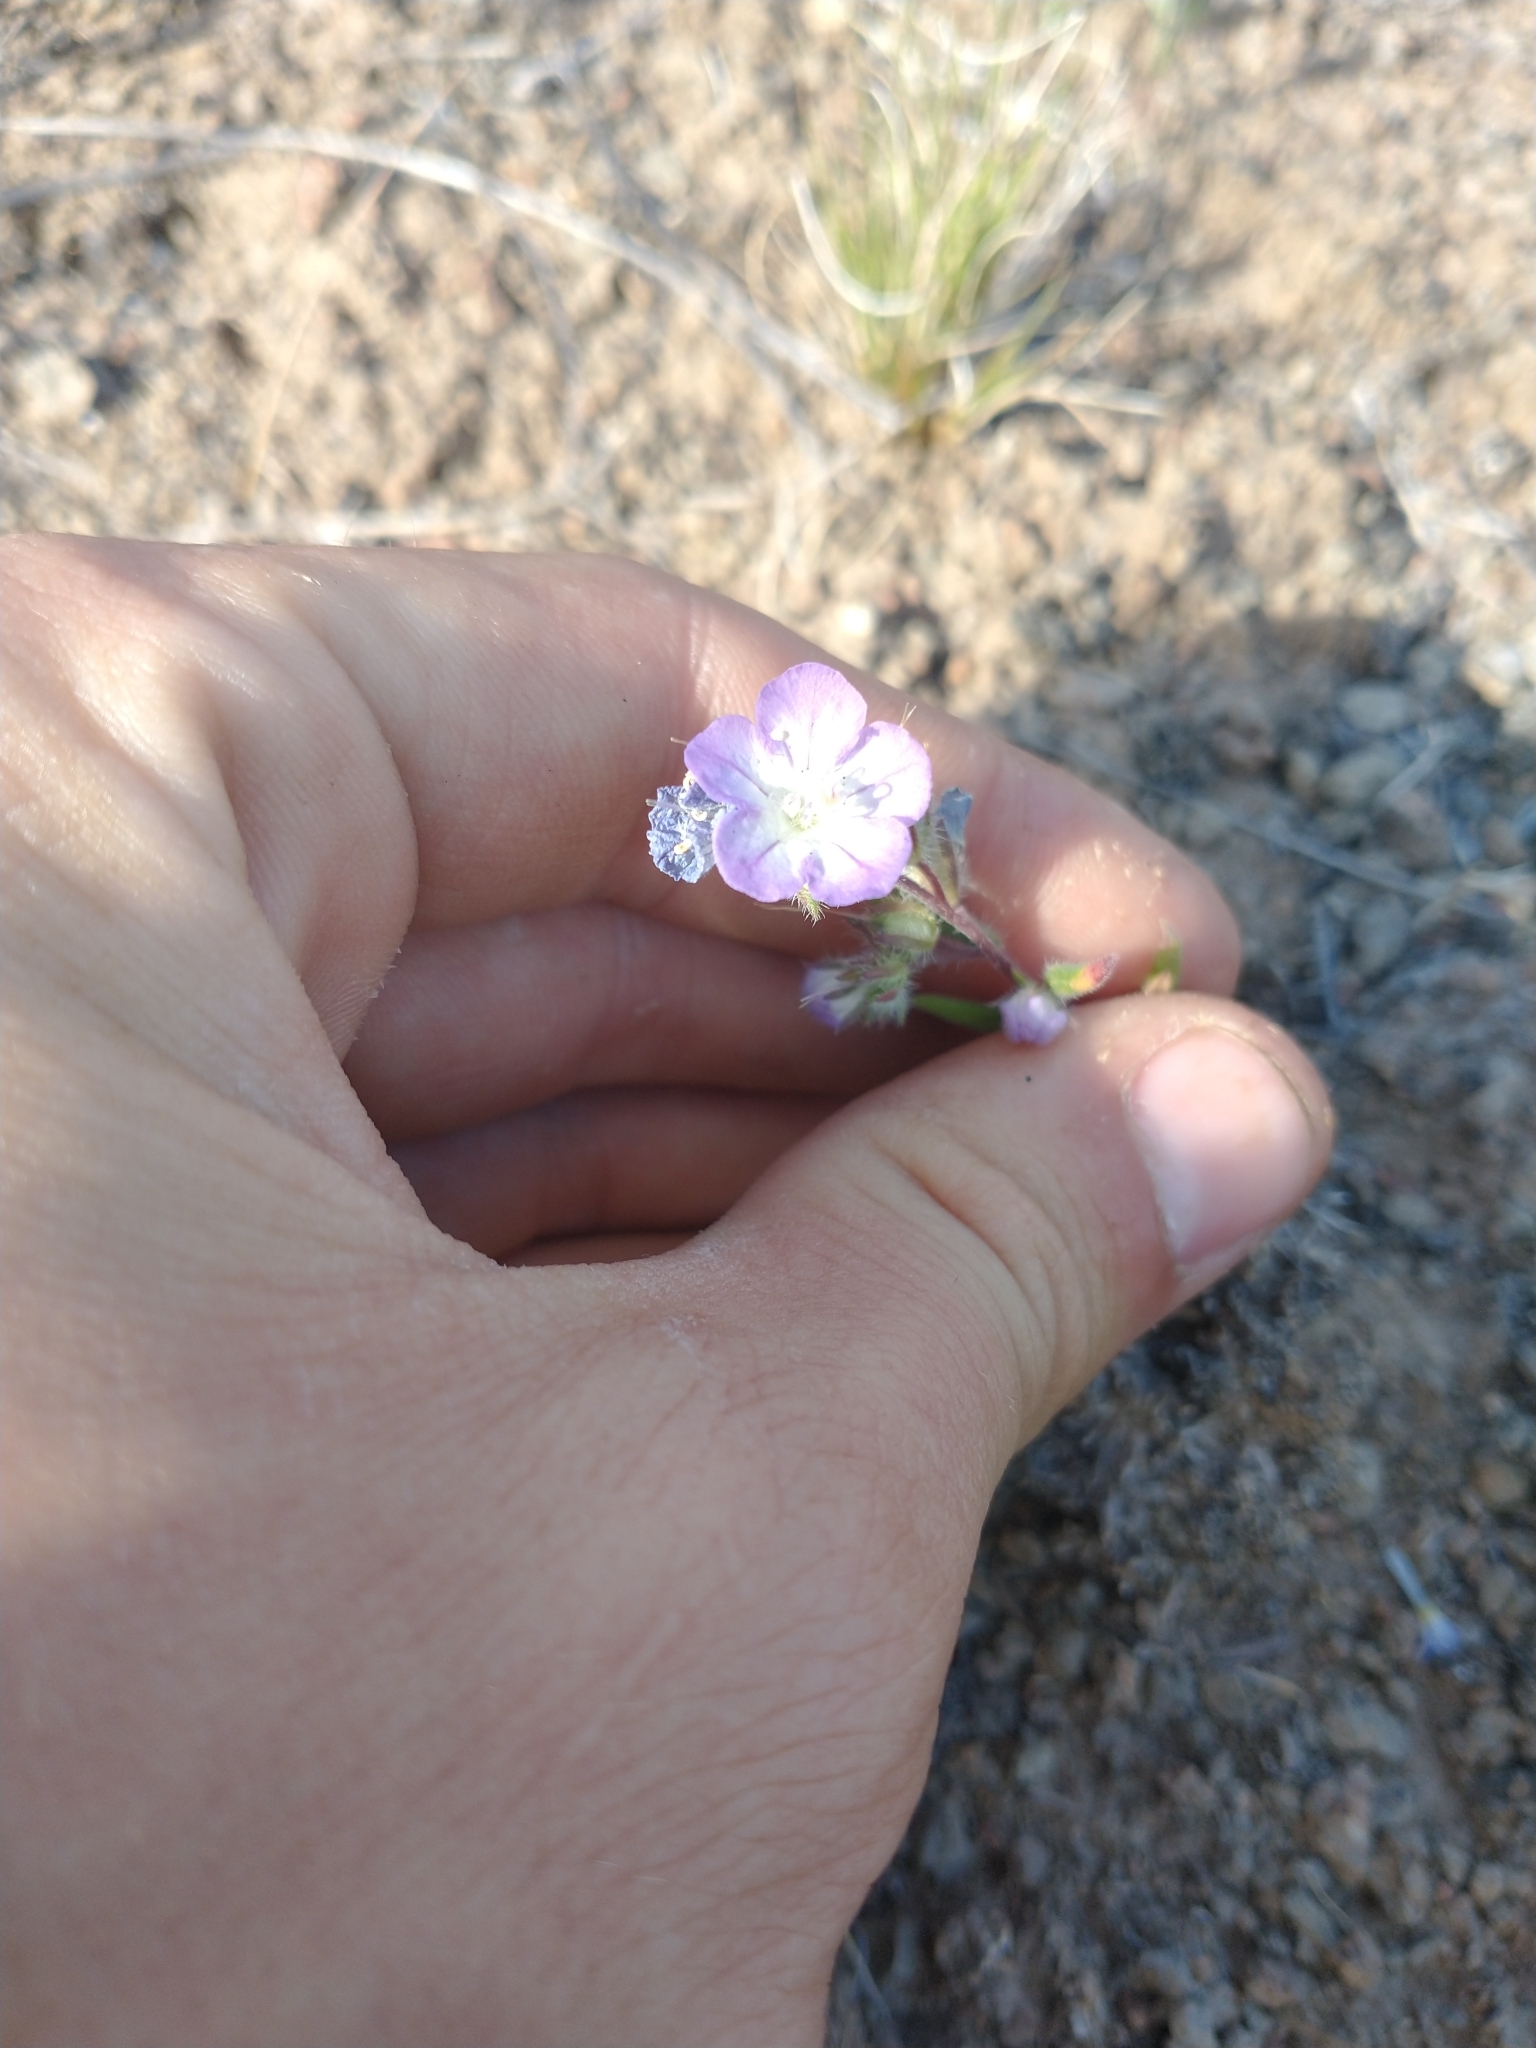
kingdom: Plantae
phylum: Tracheophyta
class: Magnoliopsida
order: Boraginales
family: Hydrophyllaceae
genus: Phacelia
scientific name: Phacelia linearis
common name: Linear-leaved phacelia
